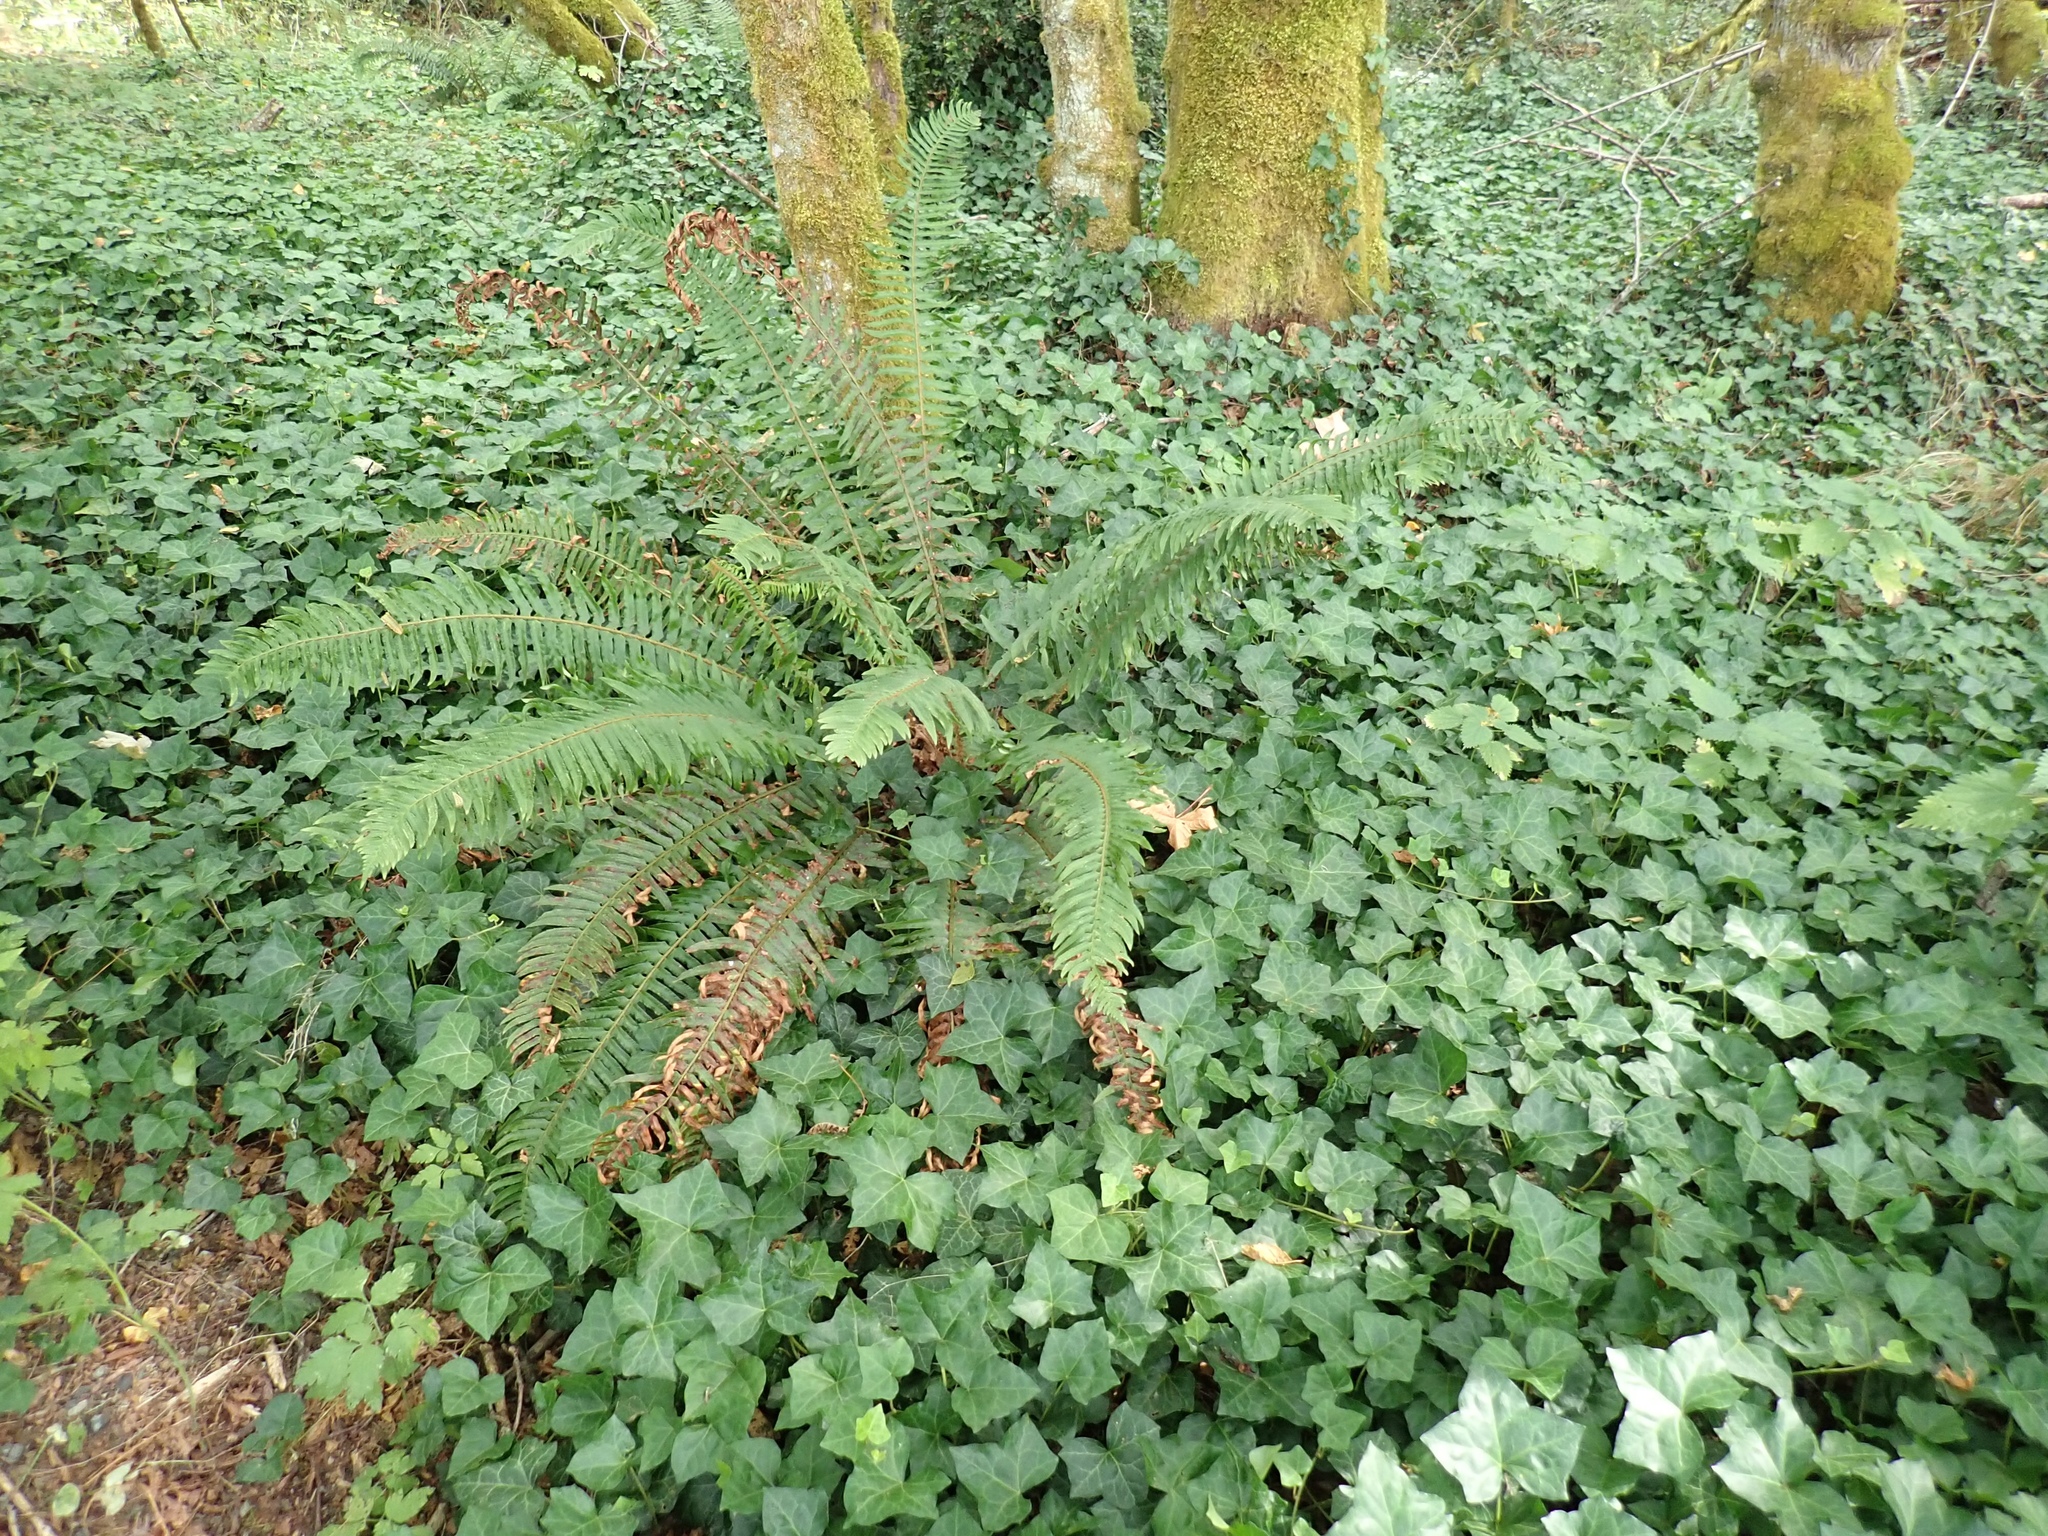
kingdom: Plantae
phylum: Tracheophyta
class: Polypodiopsida
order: Polypodiales
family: Dryopteridaceae
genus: Polystichum
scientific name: Polystichum munitum
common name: Western sword-fern
